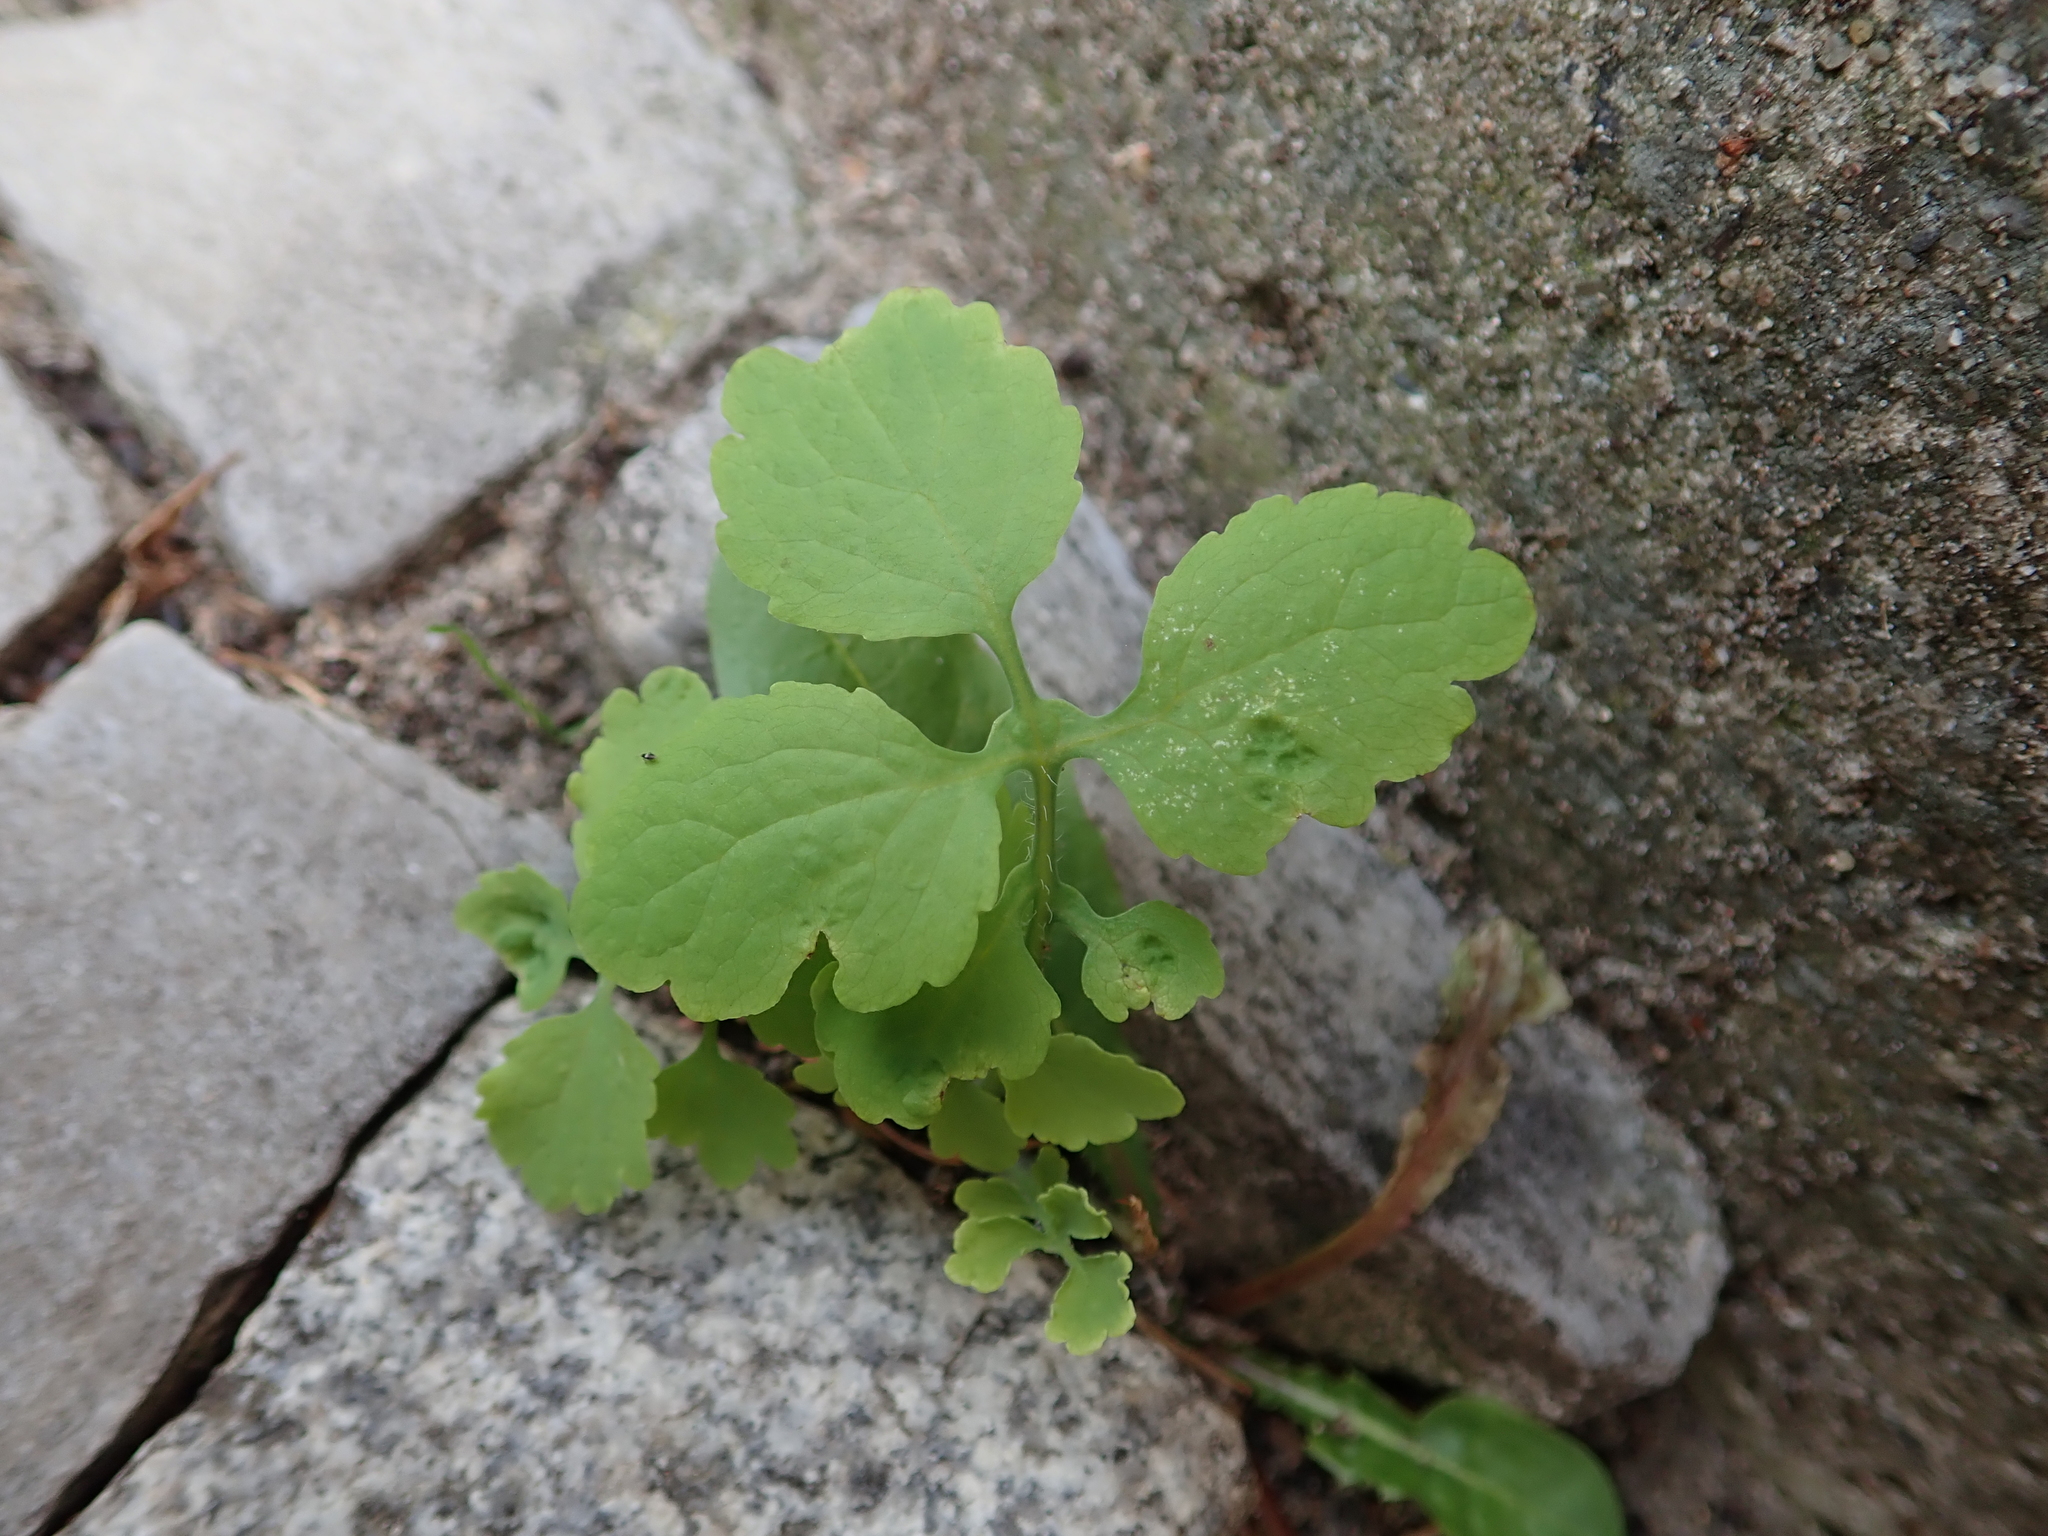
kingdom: Plantae
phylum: Tracheophyta
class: Magnoliopsida
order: Ranunculales
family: Papaveraceae
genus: Chelidonium
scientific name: Chelidonium majus
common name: Greater celandine
